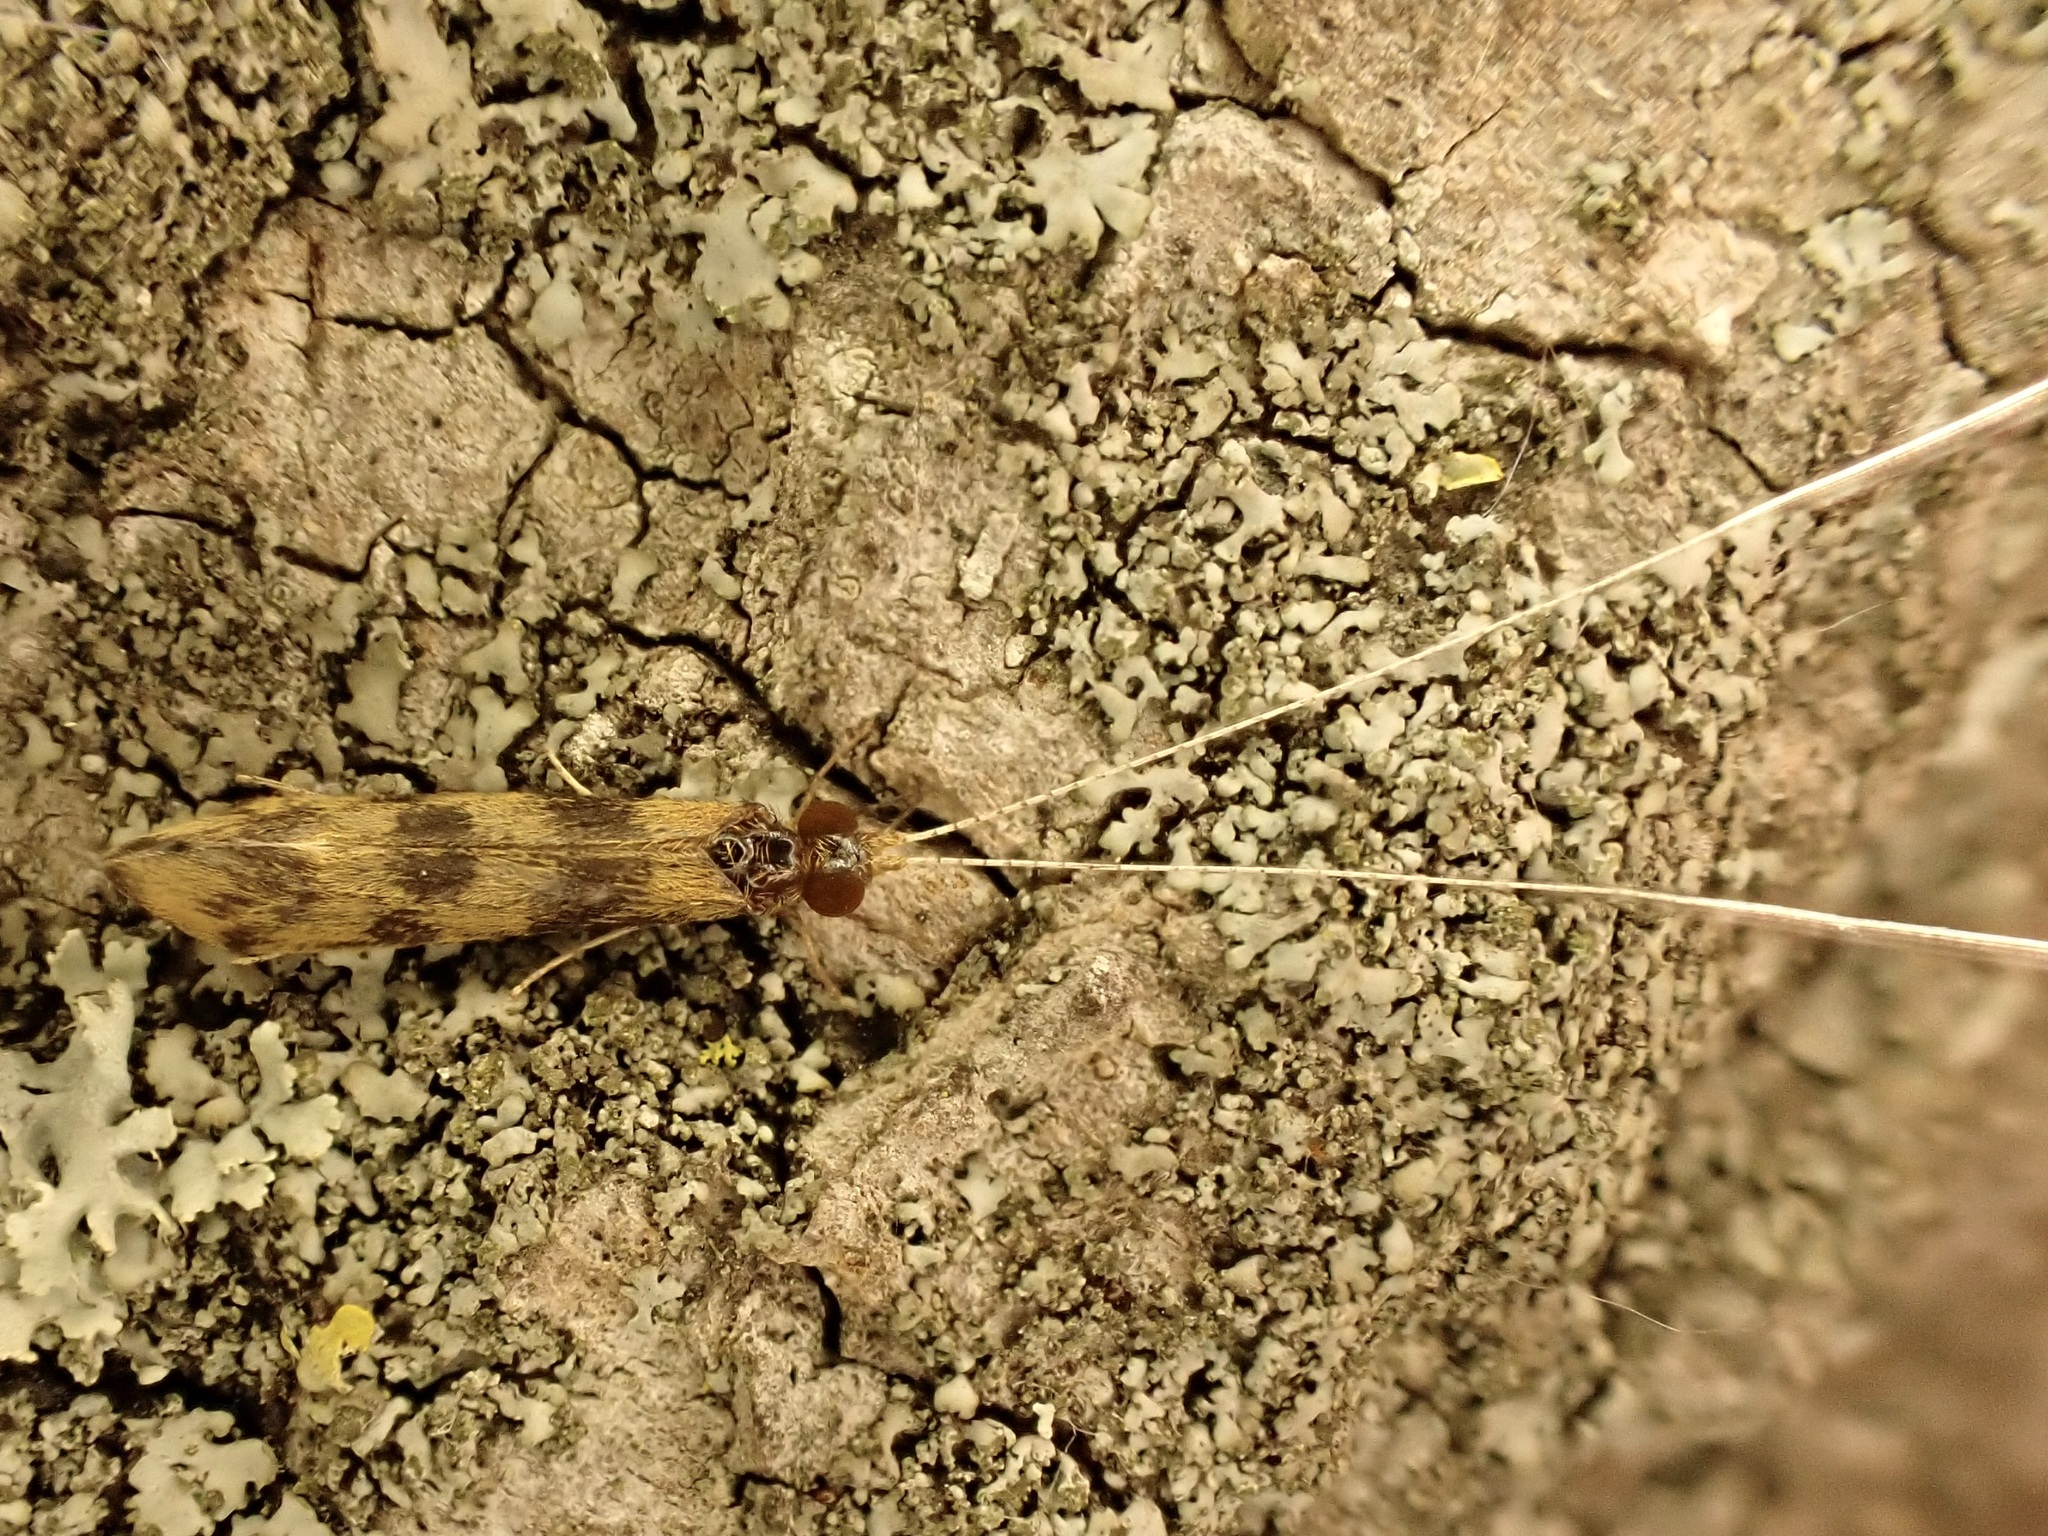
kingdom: Animalia
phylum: Arthropoda
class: Insecta
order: Trichoptera
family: Leptoceridae
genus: Mystacides
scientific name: Mystacides longicornis
